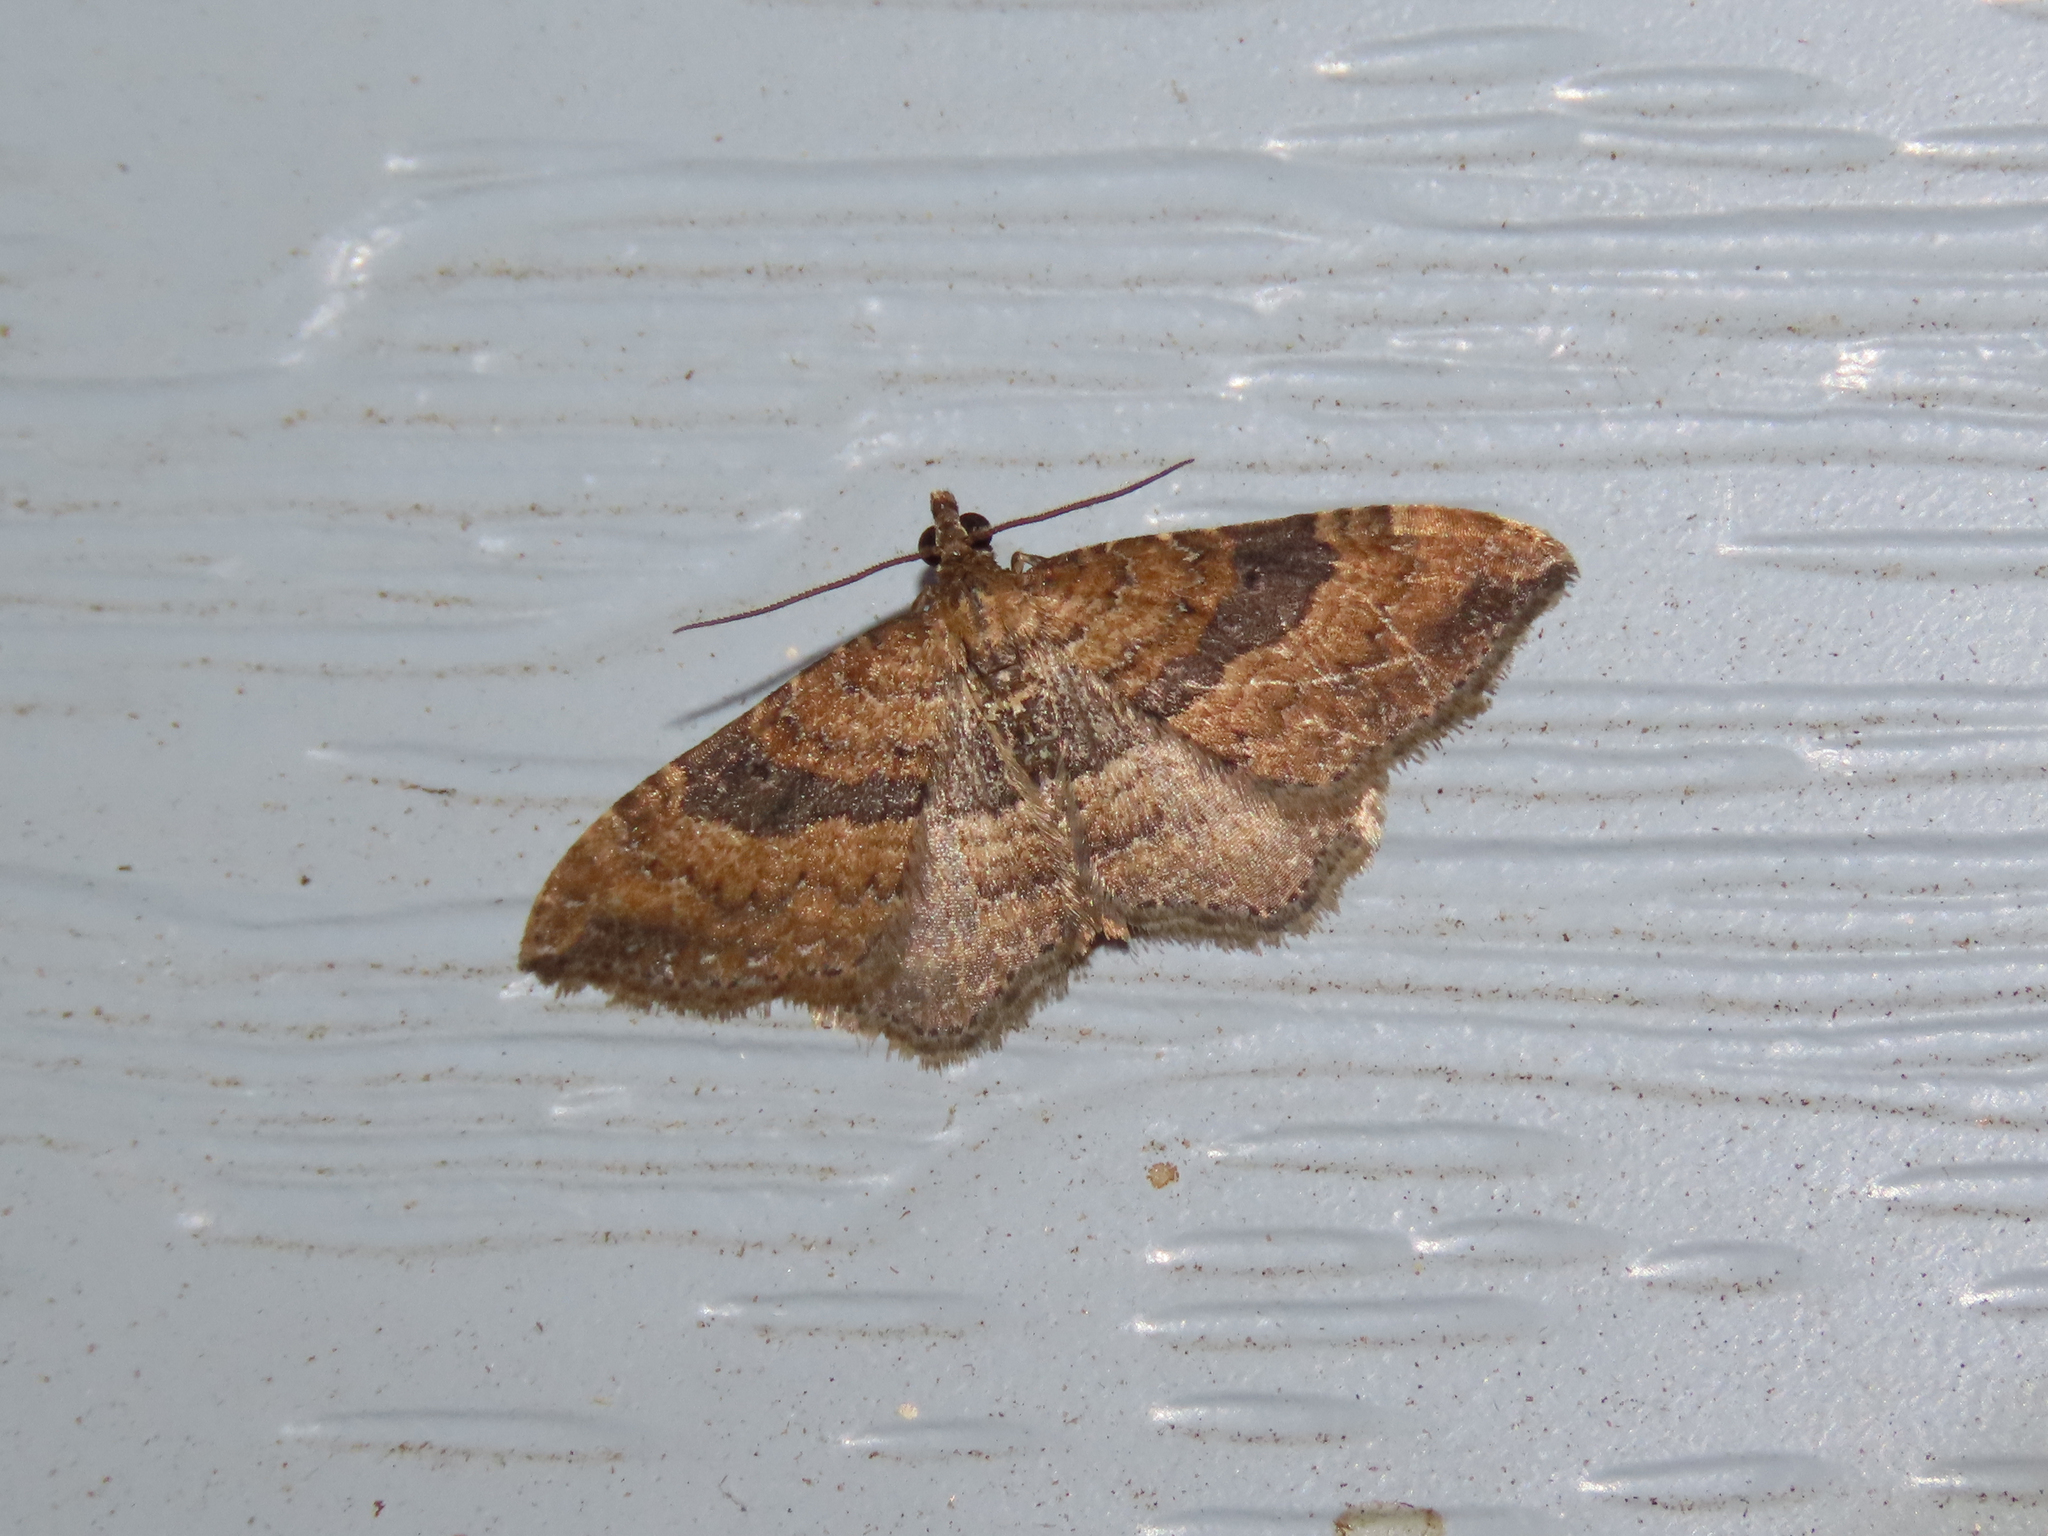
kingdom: Animalia
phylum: Arthropoda
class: Insecta
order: Lepidoptera
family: Geometridae
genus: Orthonama
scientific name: Orthonama obstipata
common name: The gem
